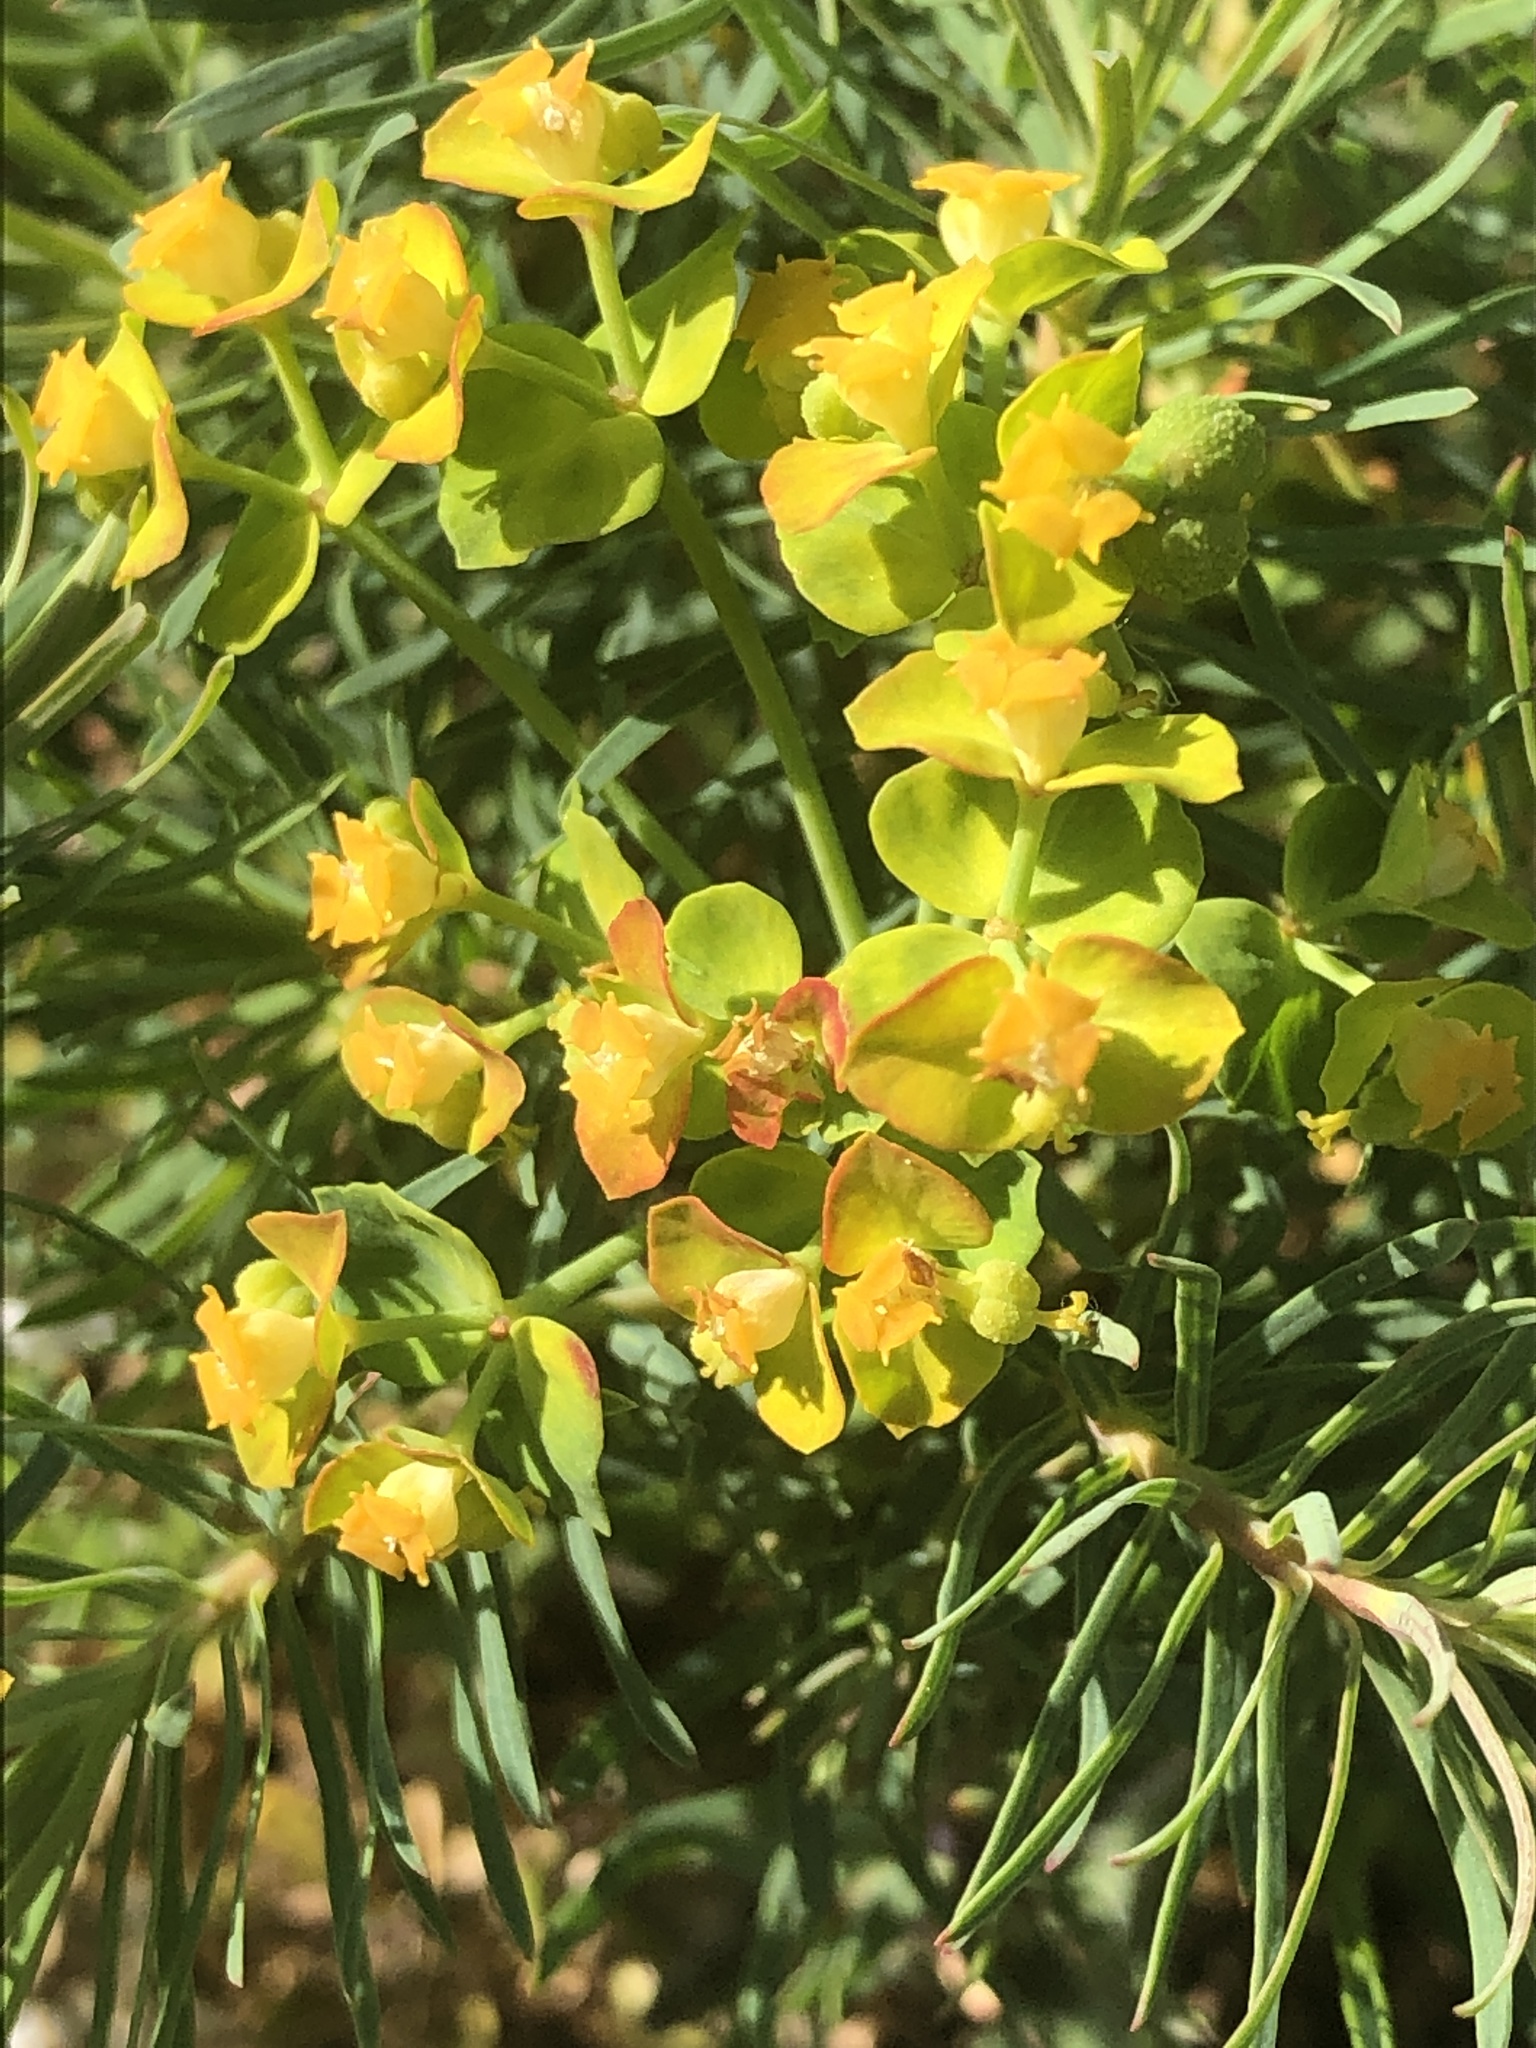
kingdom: Plantae
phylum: Tracheophyta
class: Magnoliopsida
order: Malpighiales
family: Euphorbiaceae
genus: Euphorbia
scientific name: Euphorbia cyparissias
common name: Cypress spurge
